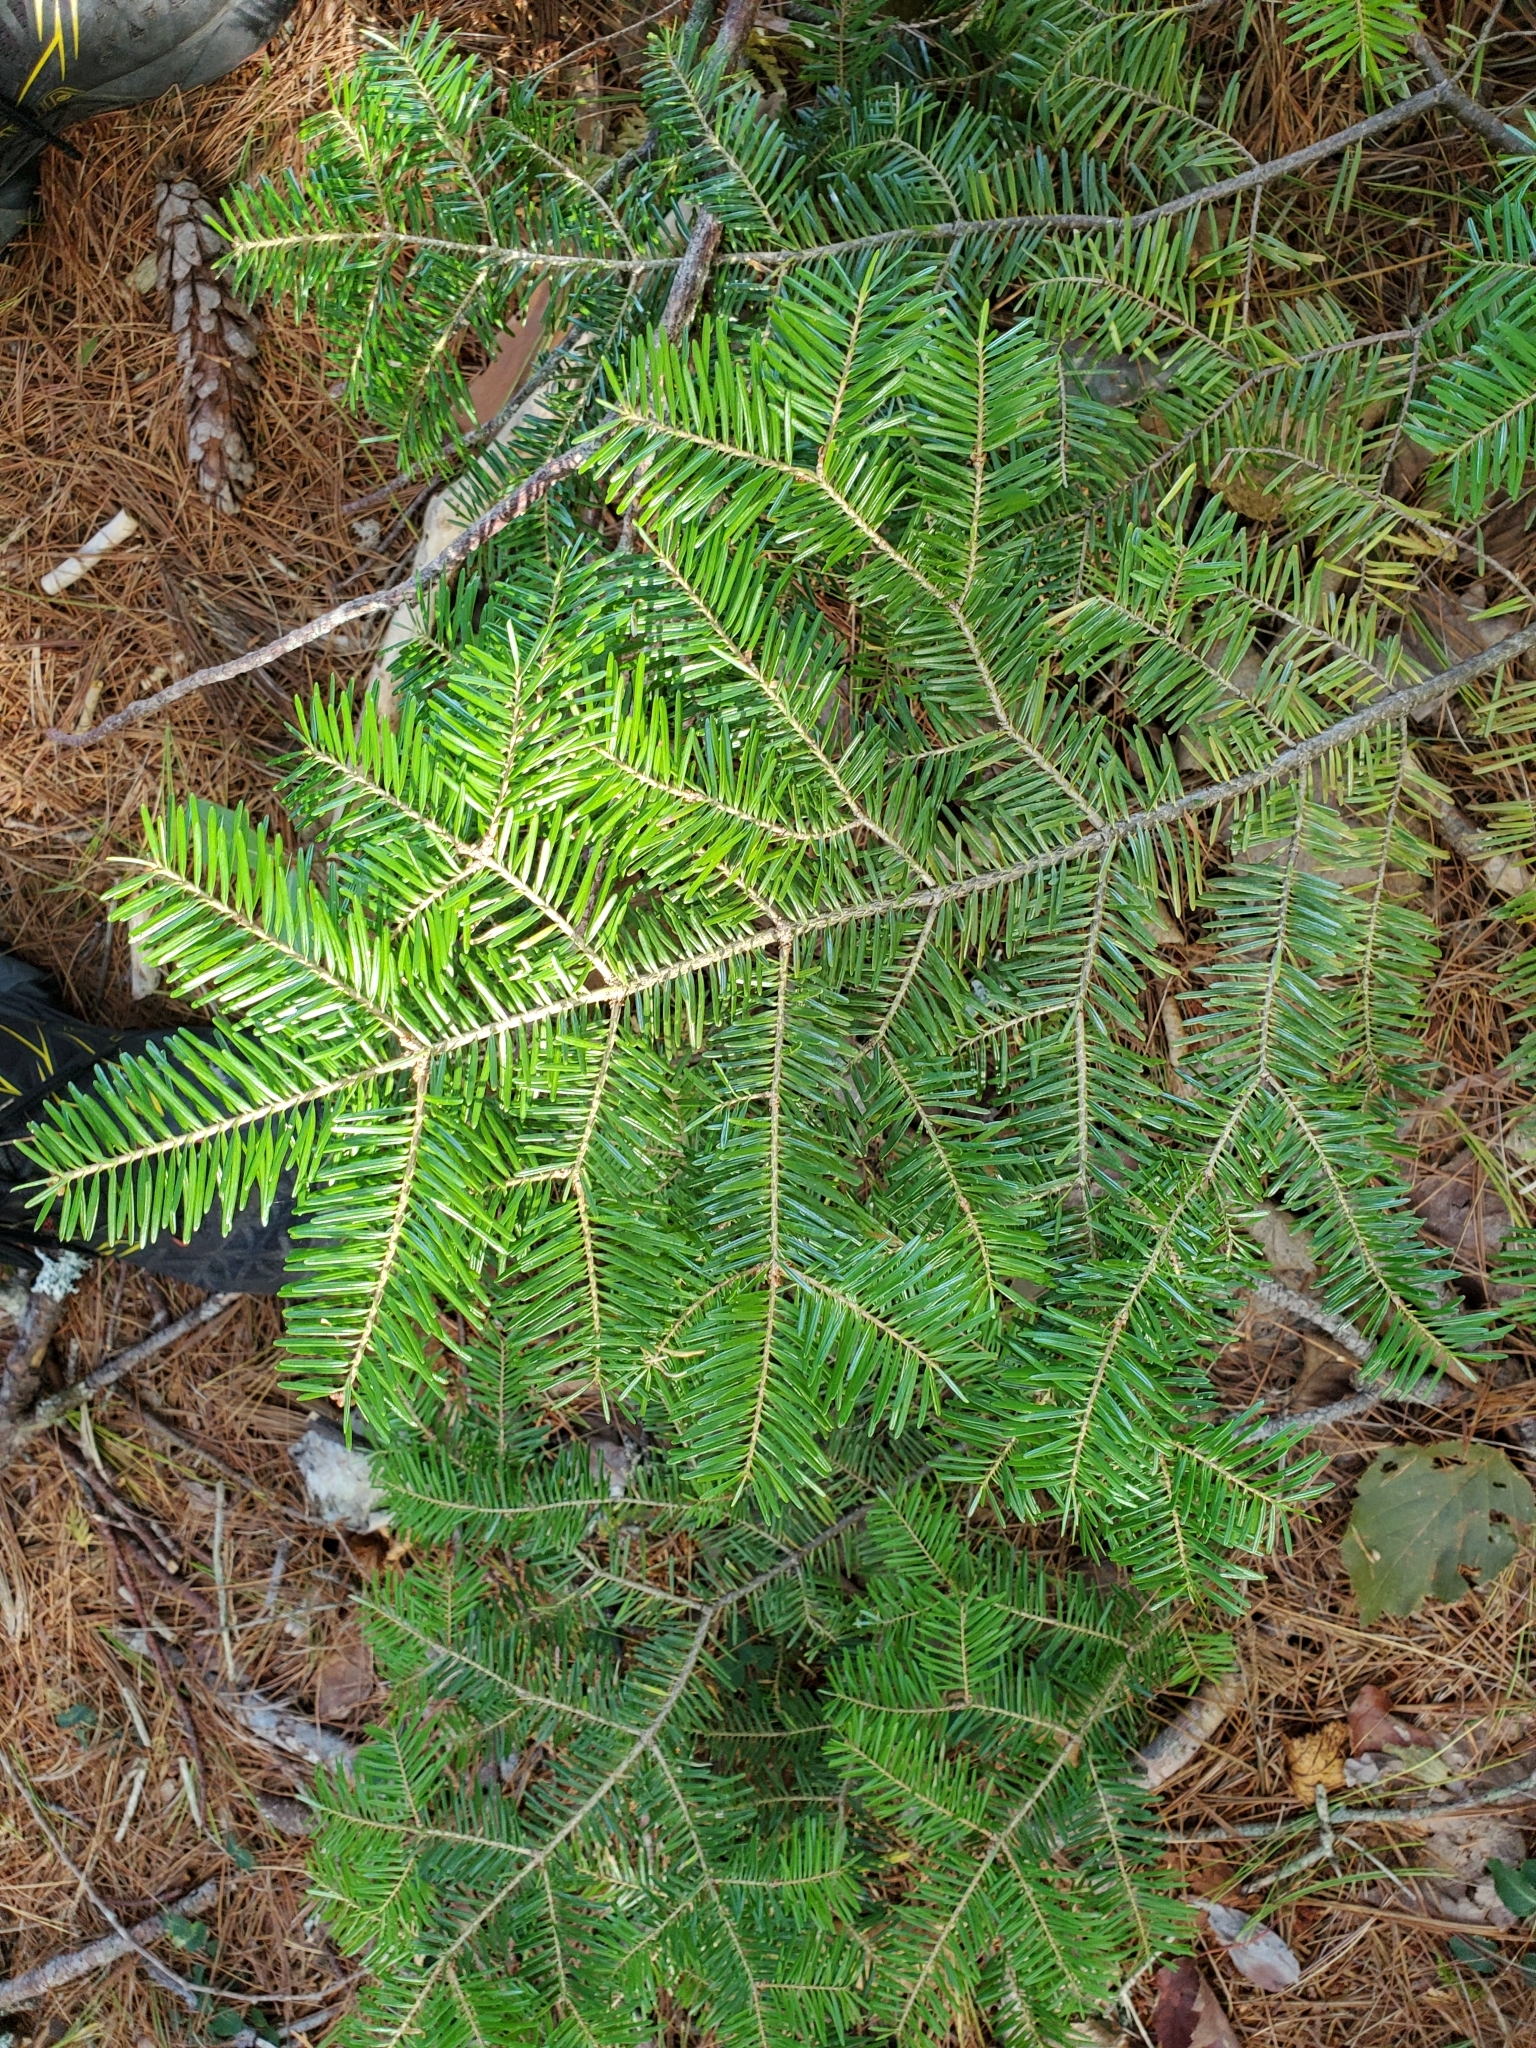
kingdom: Plantae
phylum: Tracheophyta
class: Pinopsida
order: Pinales
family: Pinaceae
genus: Abies
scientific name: Abies balsamea
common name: Balsam fir
